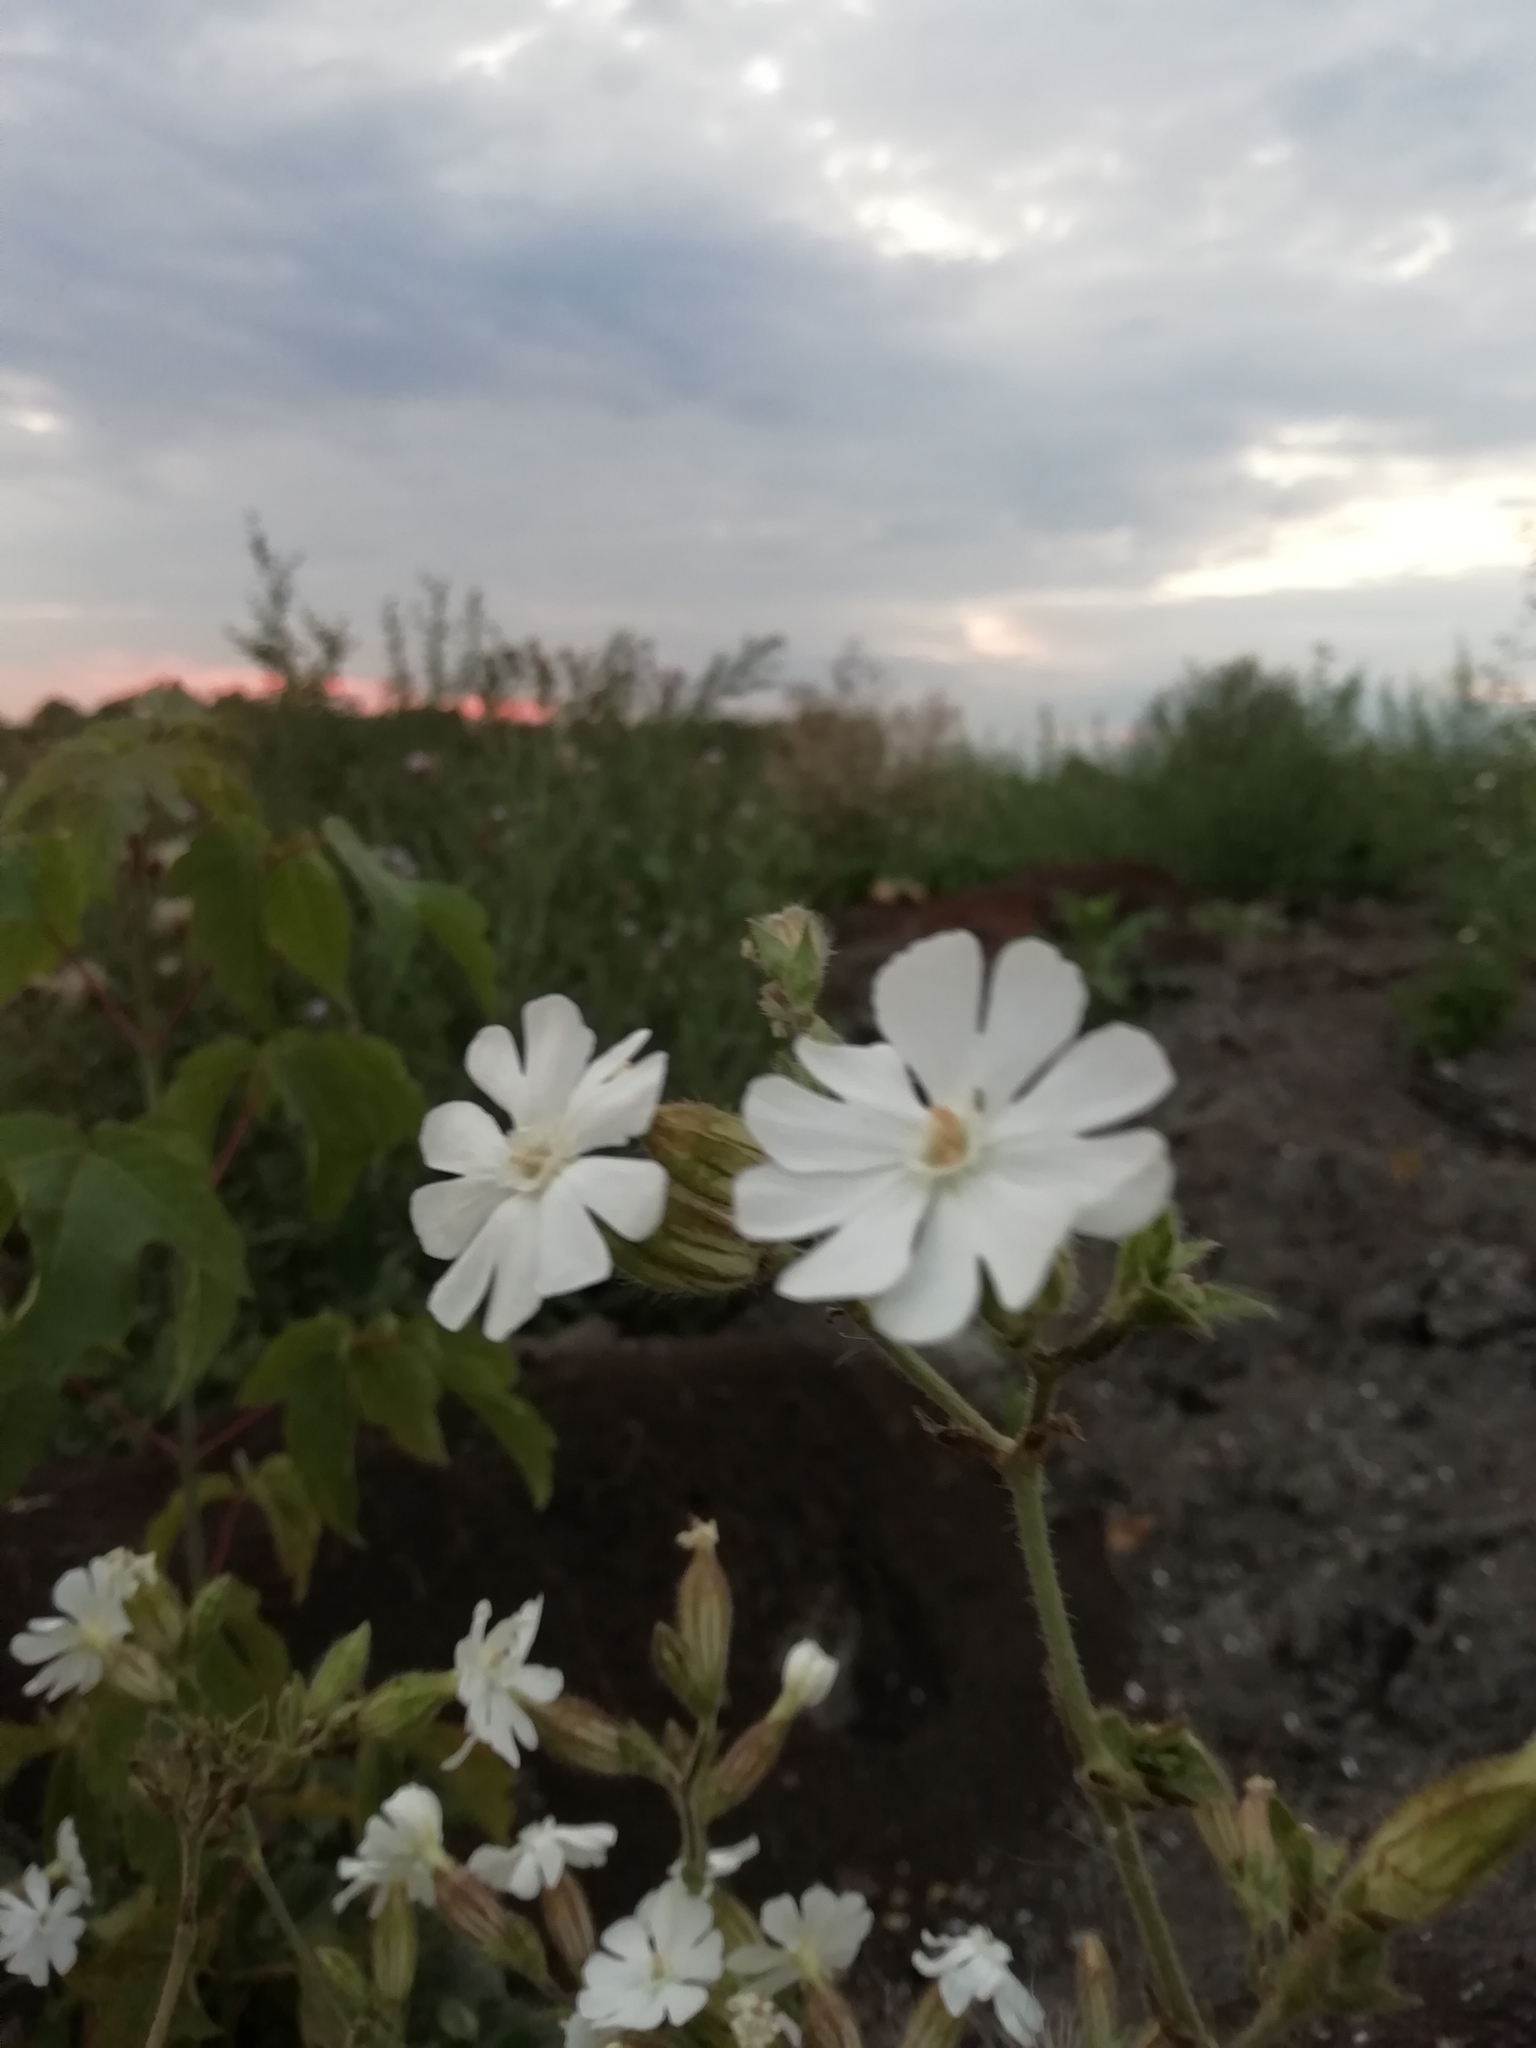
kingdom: Plantae
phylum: Tracheophyta
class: Magnoliopsida
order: Caryophyllales
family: Caryophyllaceae
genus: Silene
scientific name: Silene latifolia
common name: White campion
